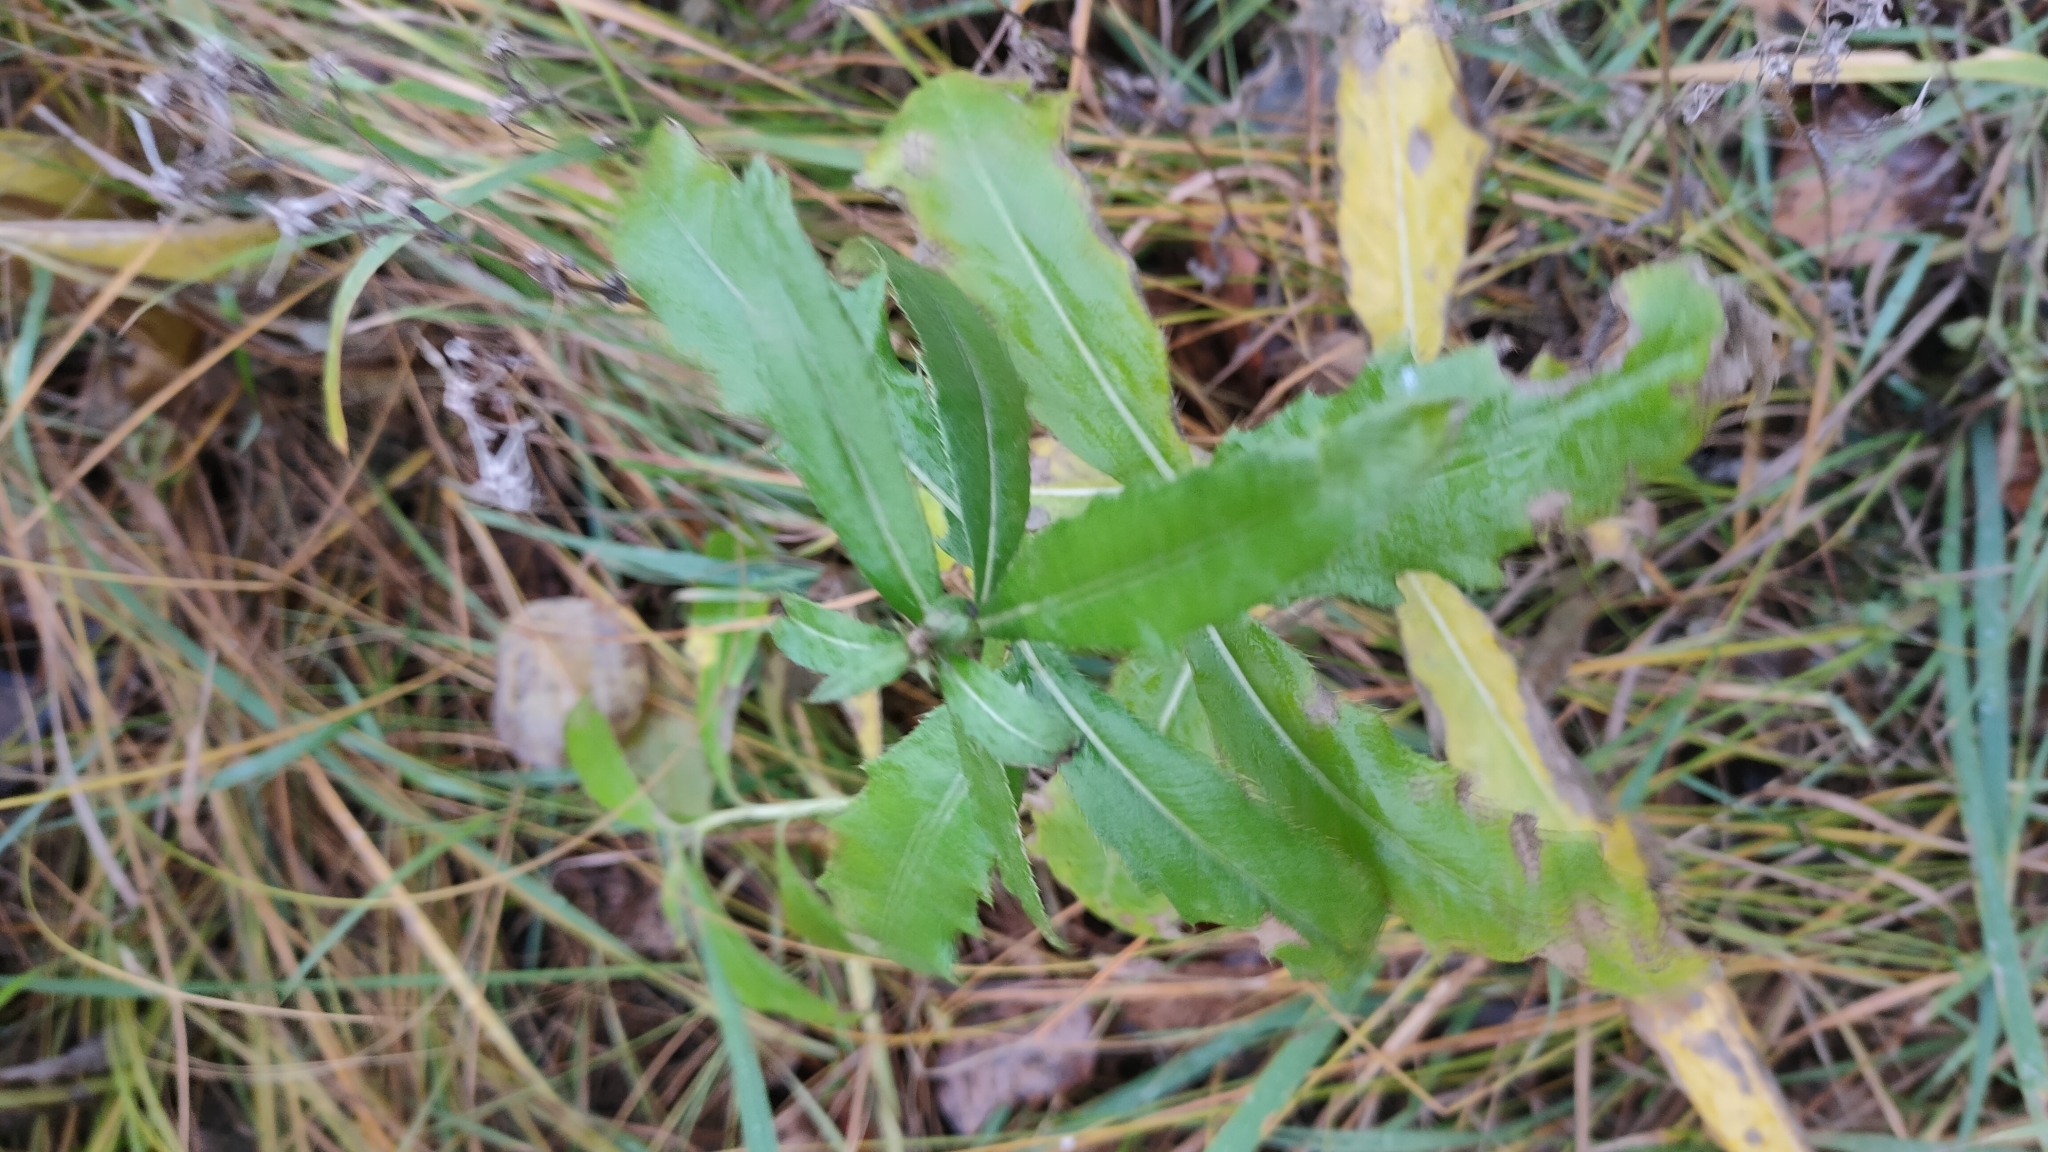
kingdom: Plantae
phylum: Tracheophyta
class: Magnoliopsida
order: Asterales
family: Asteraceae
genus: Cirsium
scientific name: Cirsium arvense
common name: Creeping thistle
